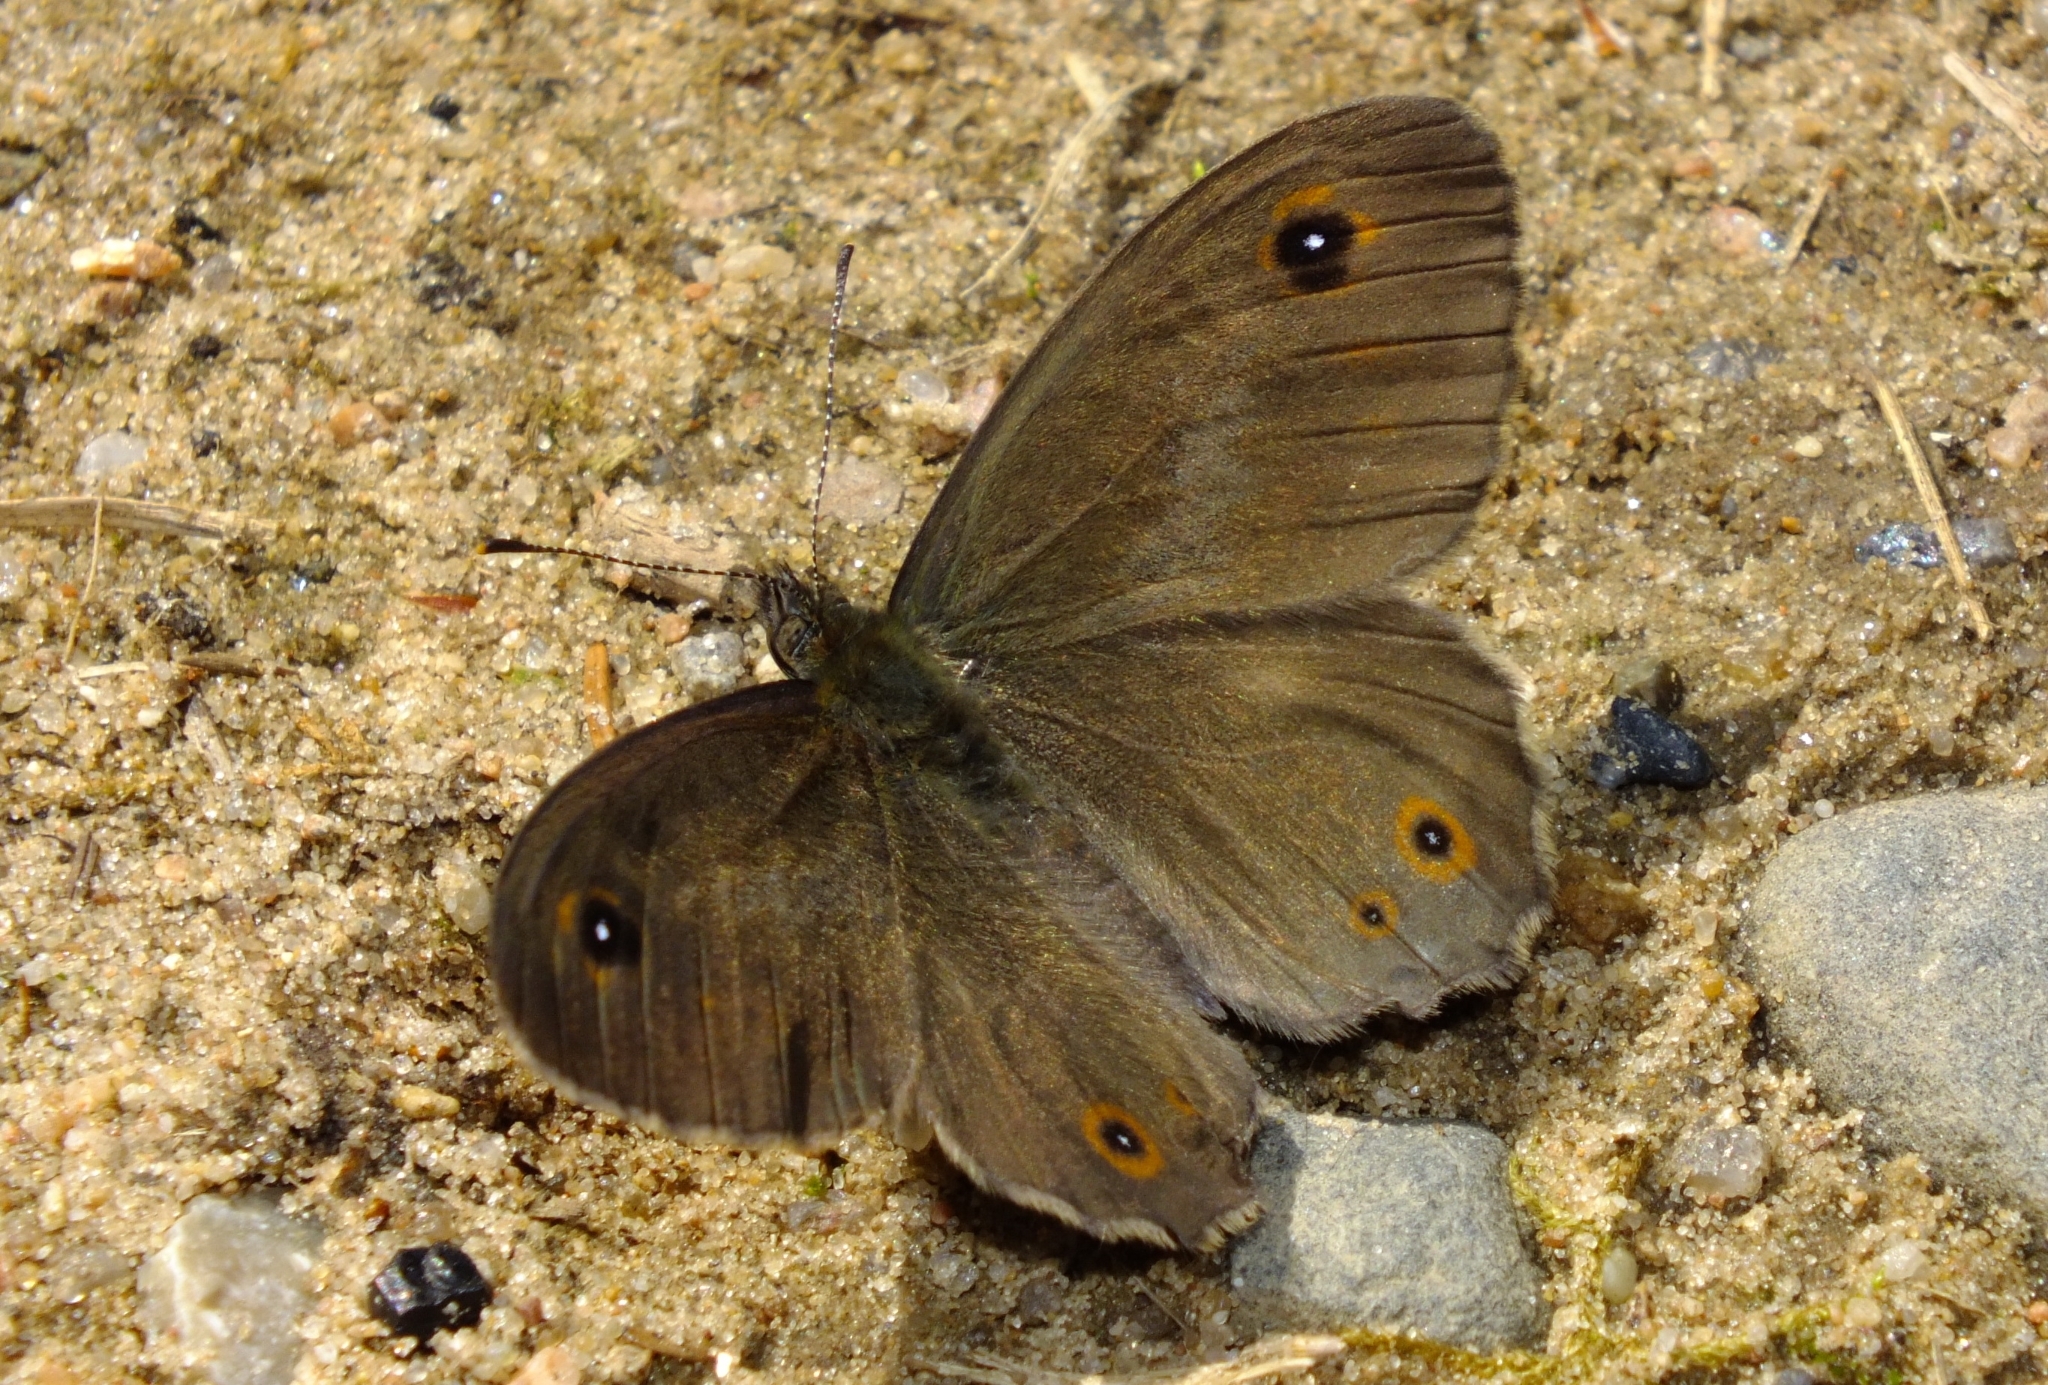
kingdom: Animalia
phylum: Arthropoda
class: Insecta
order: Lepidoptera
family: Nymphalidae
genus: Pararge
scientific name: Pararge Lasiommata maera
